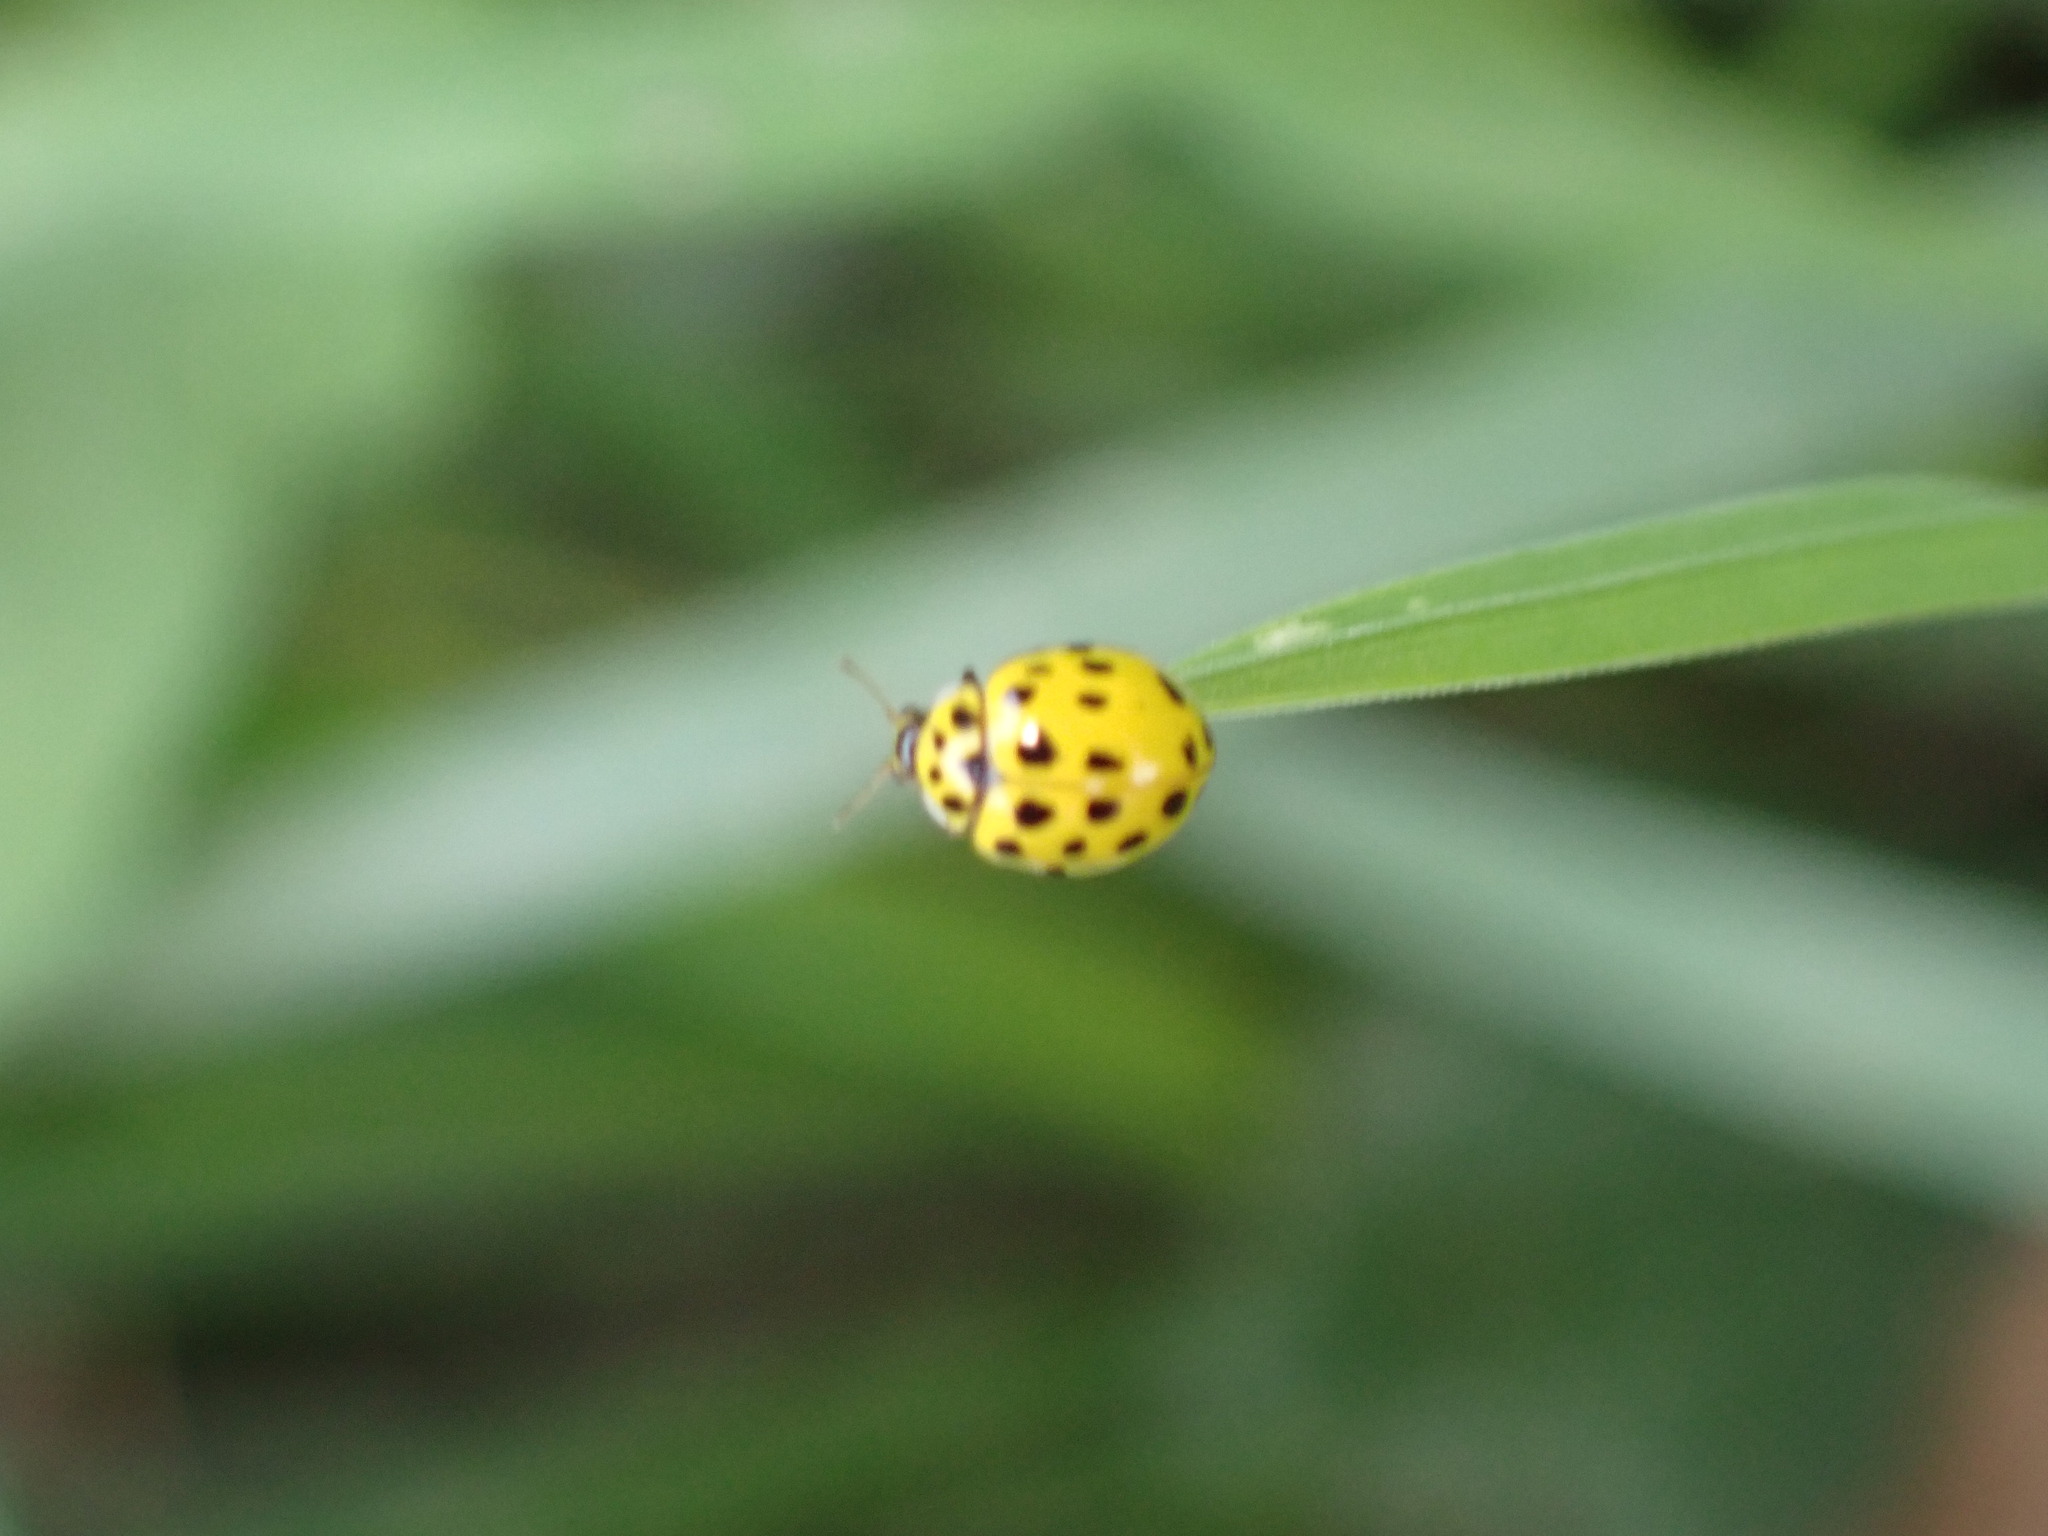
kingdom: Animalia
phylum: Arthropoda
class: Insecta
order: Coleoptera
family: Coccinellidae
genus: Psyllobora
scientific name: Psyllobora vigintiduopunctata
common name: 22-spot ladybird
